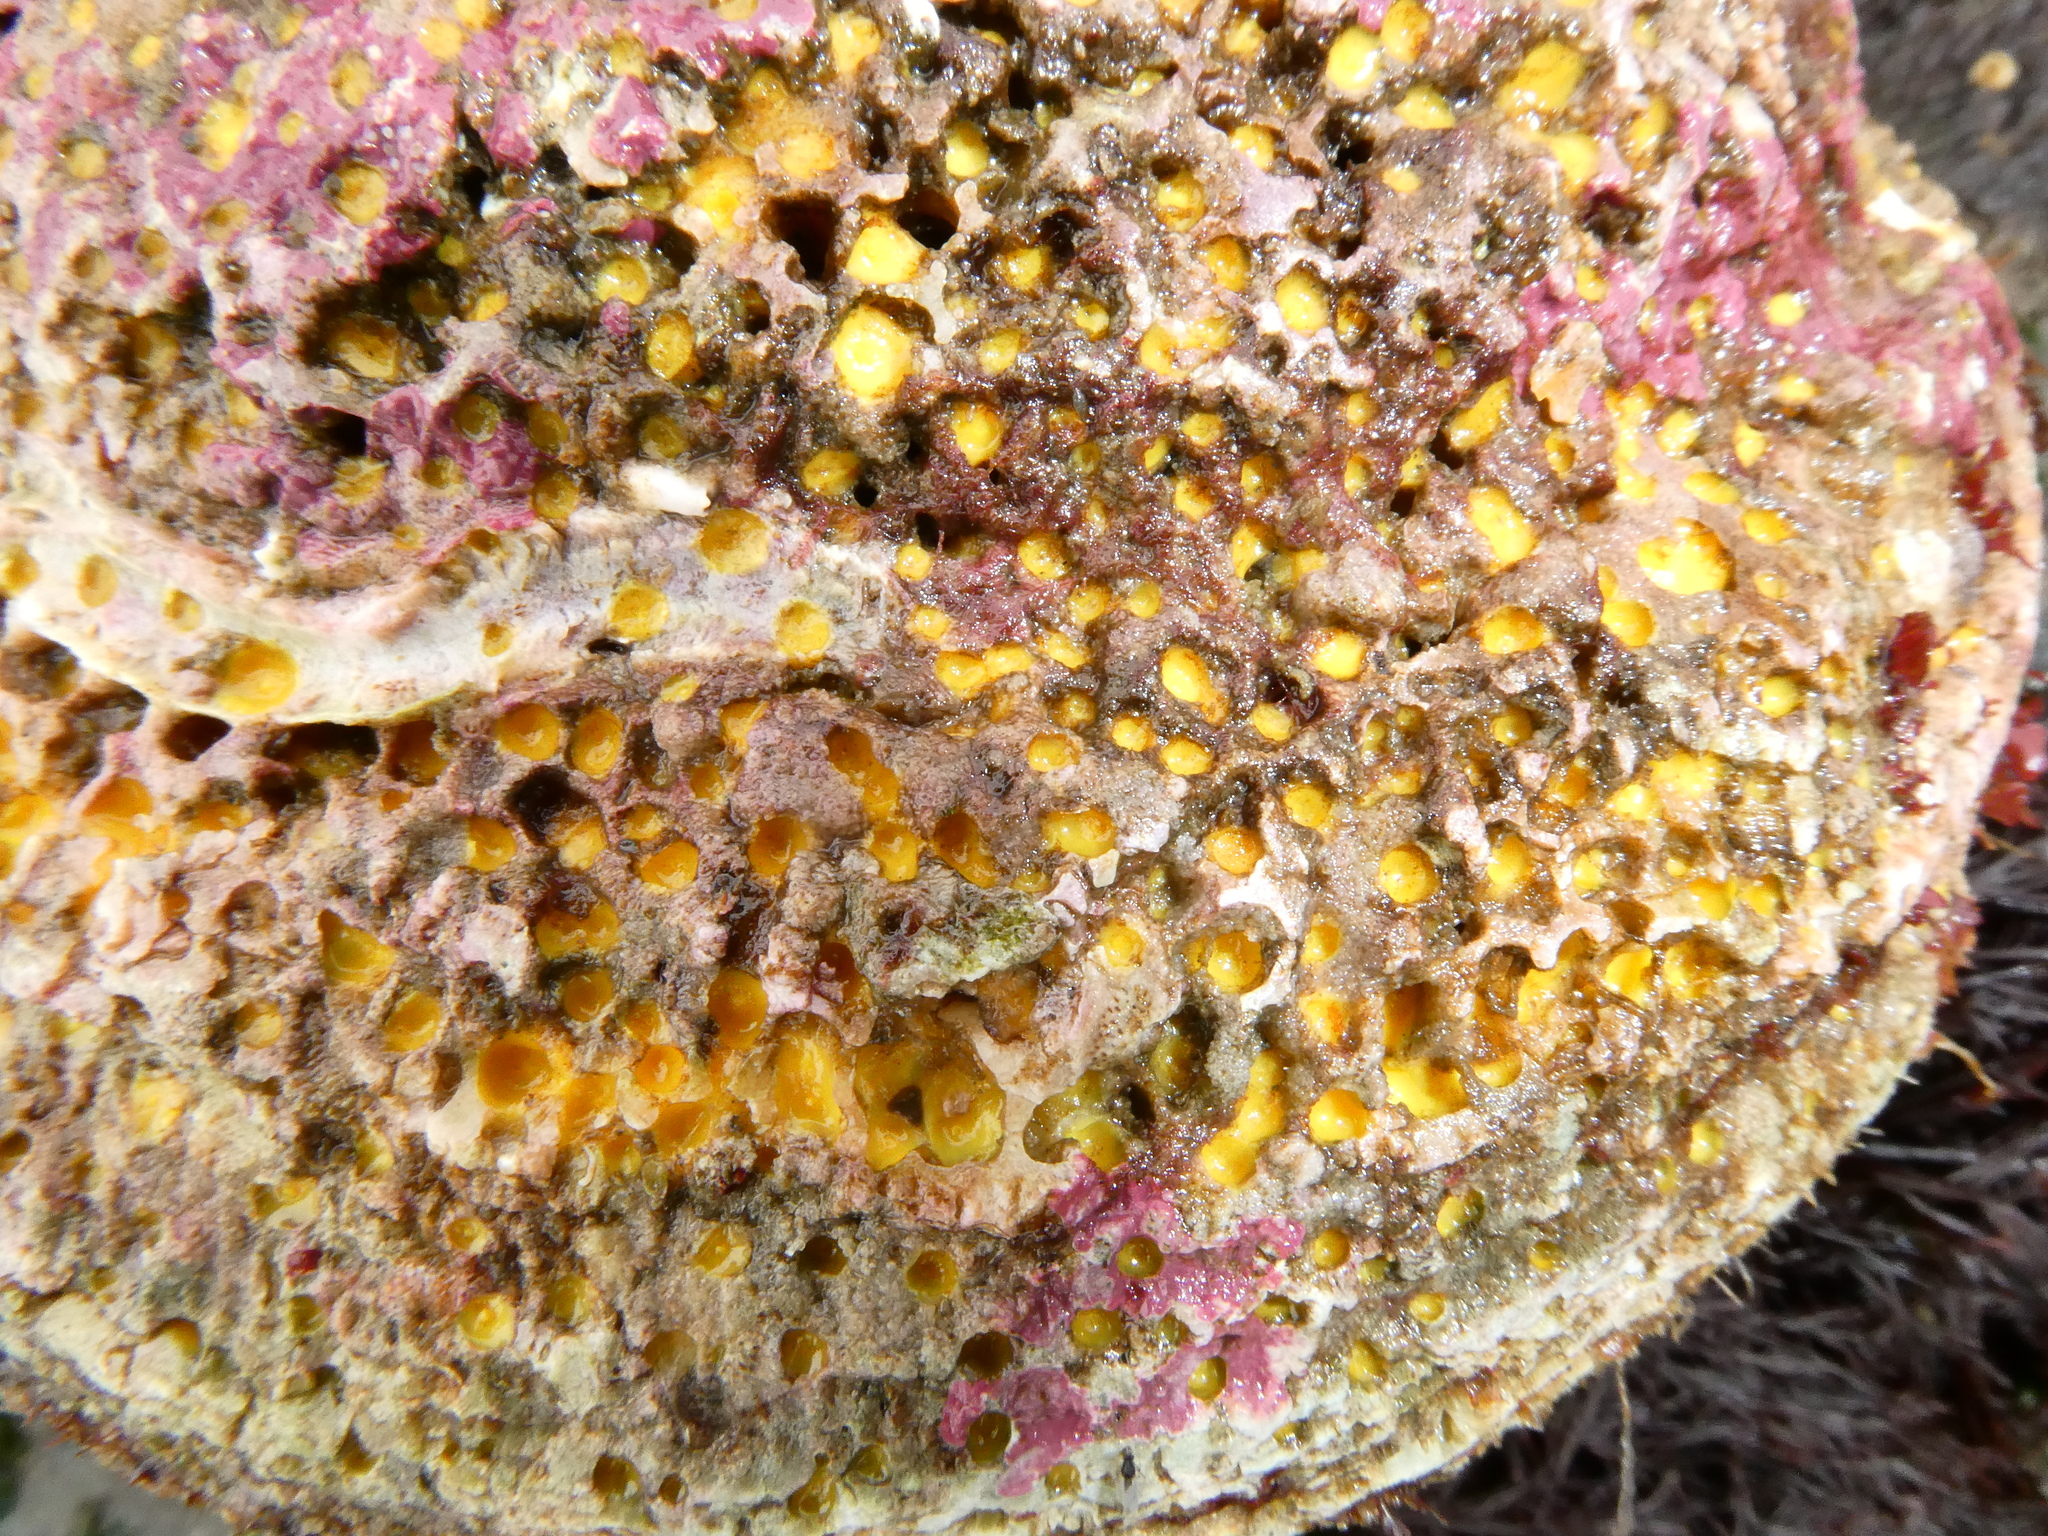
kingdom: Animalia
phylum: Porifera
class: Demospongiae
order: Clionaida
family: Clionaidae
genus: Cliona
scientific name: Cliona californiana
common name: California boring horny sponge
